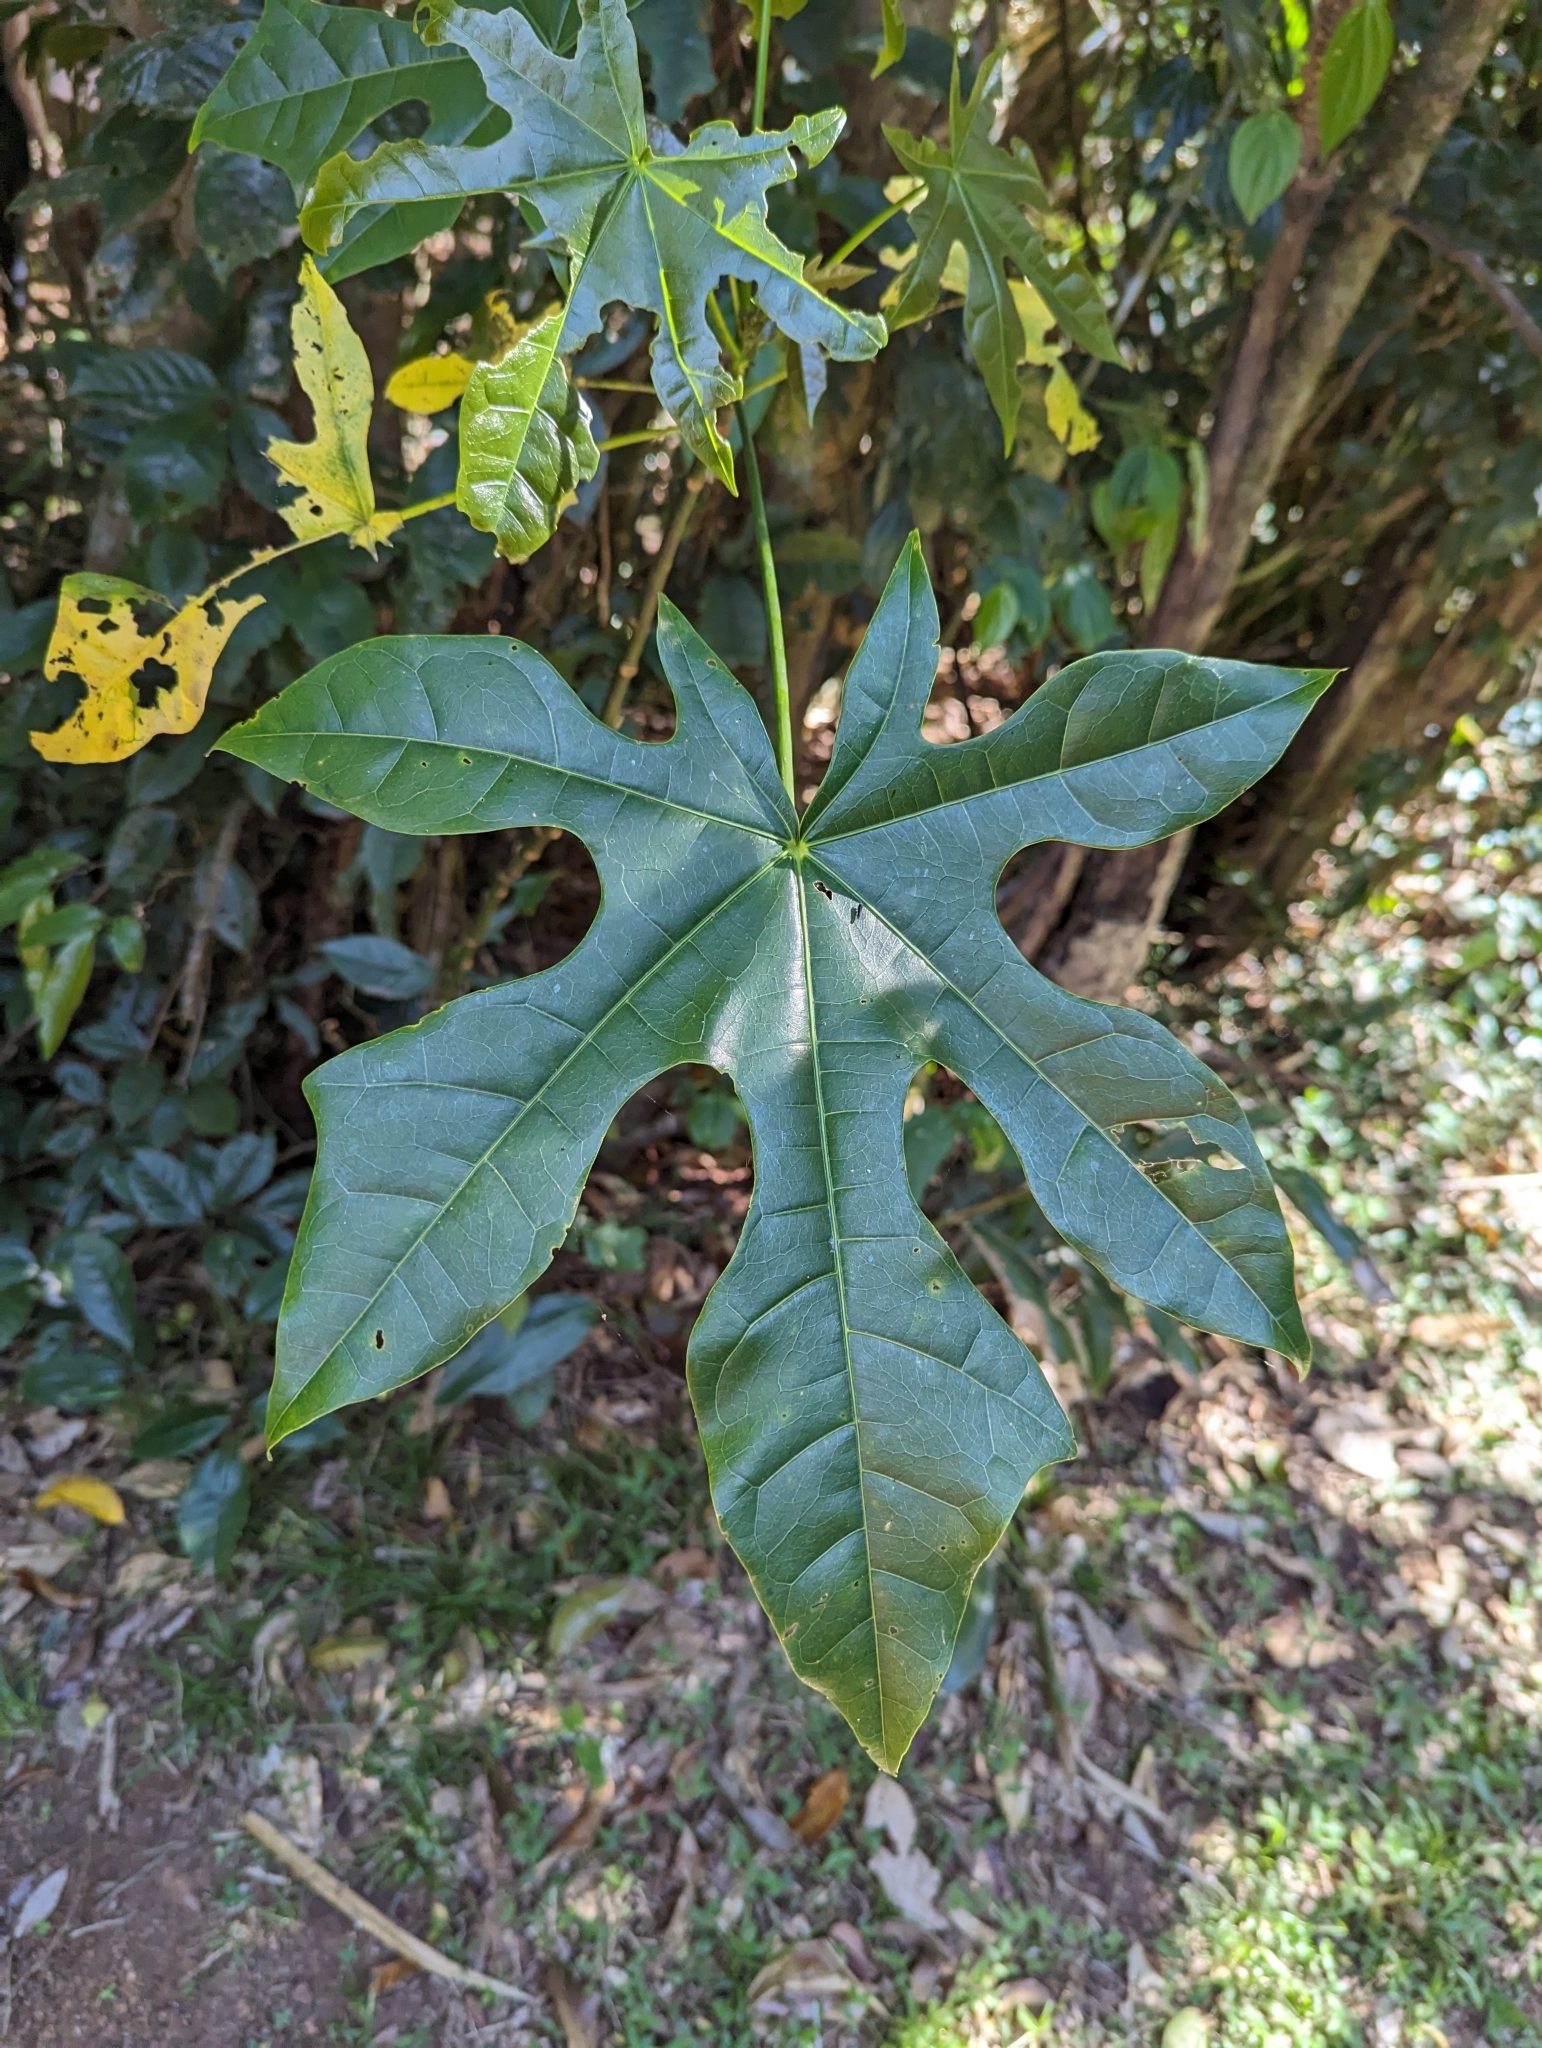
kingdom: Plantae
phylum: Tracheophyta
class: Magnoliopsida
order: Malvales
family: Malvaceae
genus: Brachychiton
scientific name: Brachychiton acerifolius
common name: Illawarra flame tree
